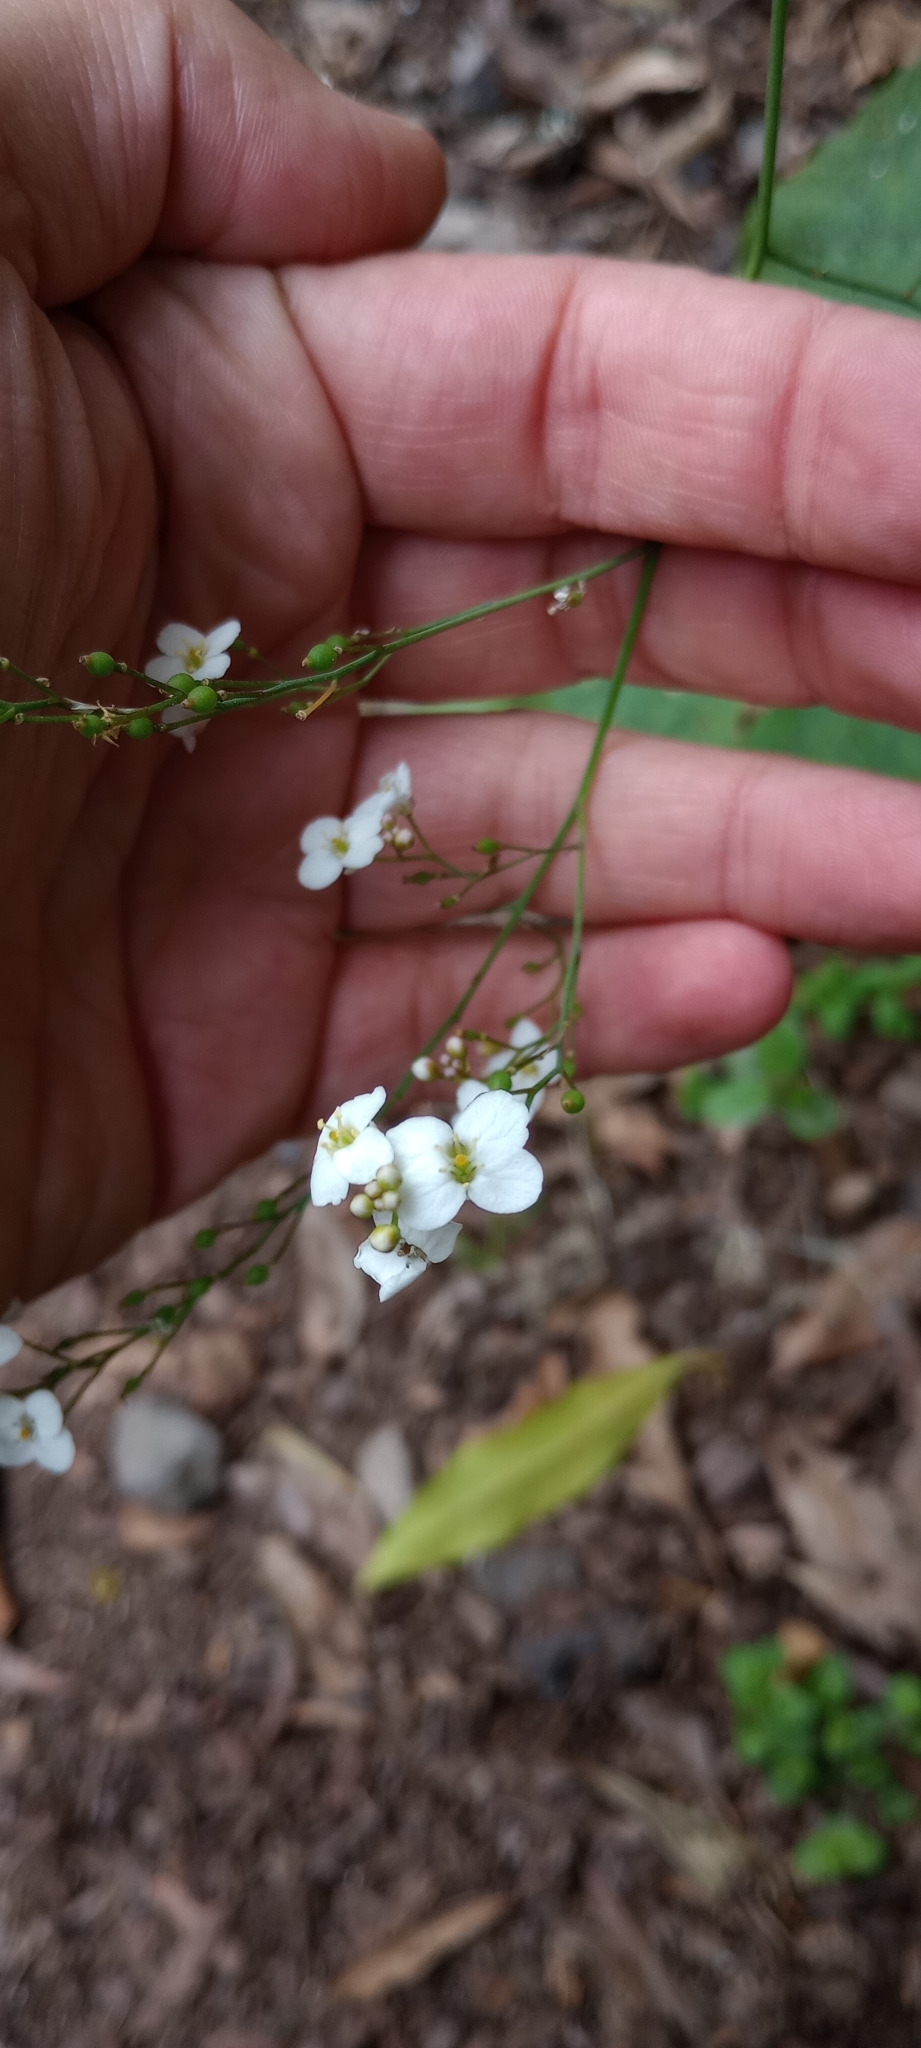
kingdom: Plantae
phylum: Tracheophyta
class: Magnoliopsida
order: Brassicales
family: Brassicaceae
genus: Crambe
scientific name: Crambe strigosa
